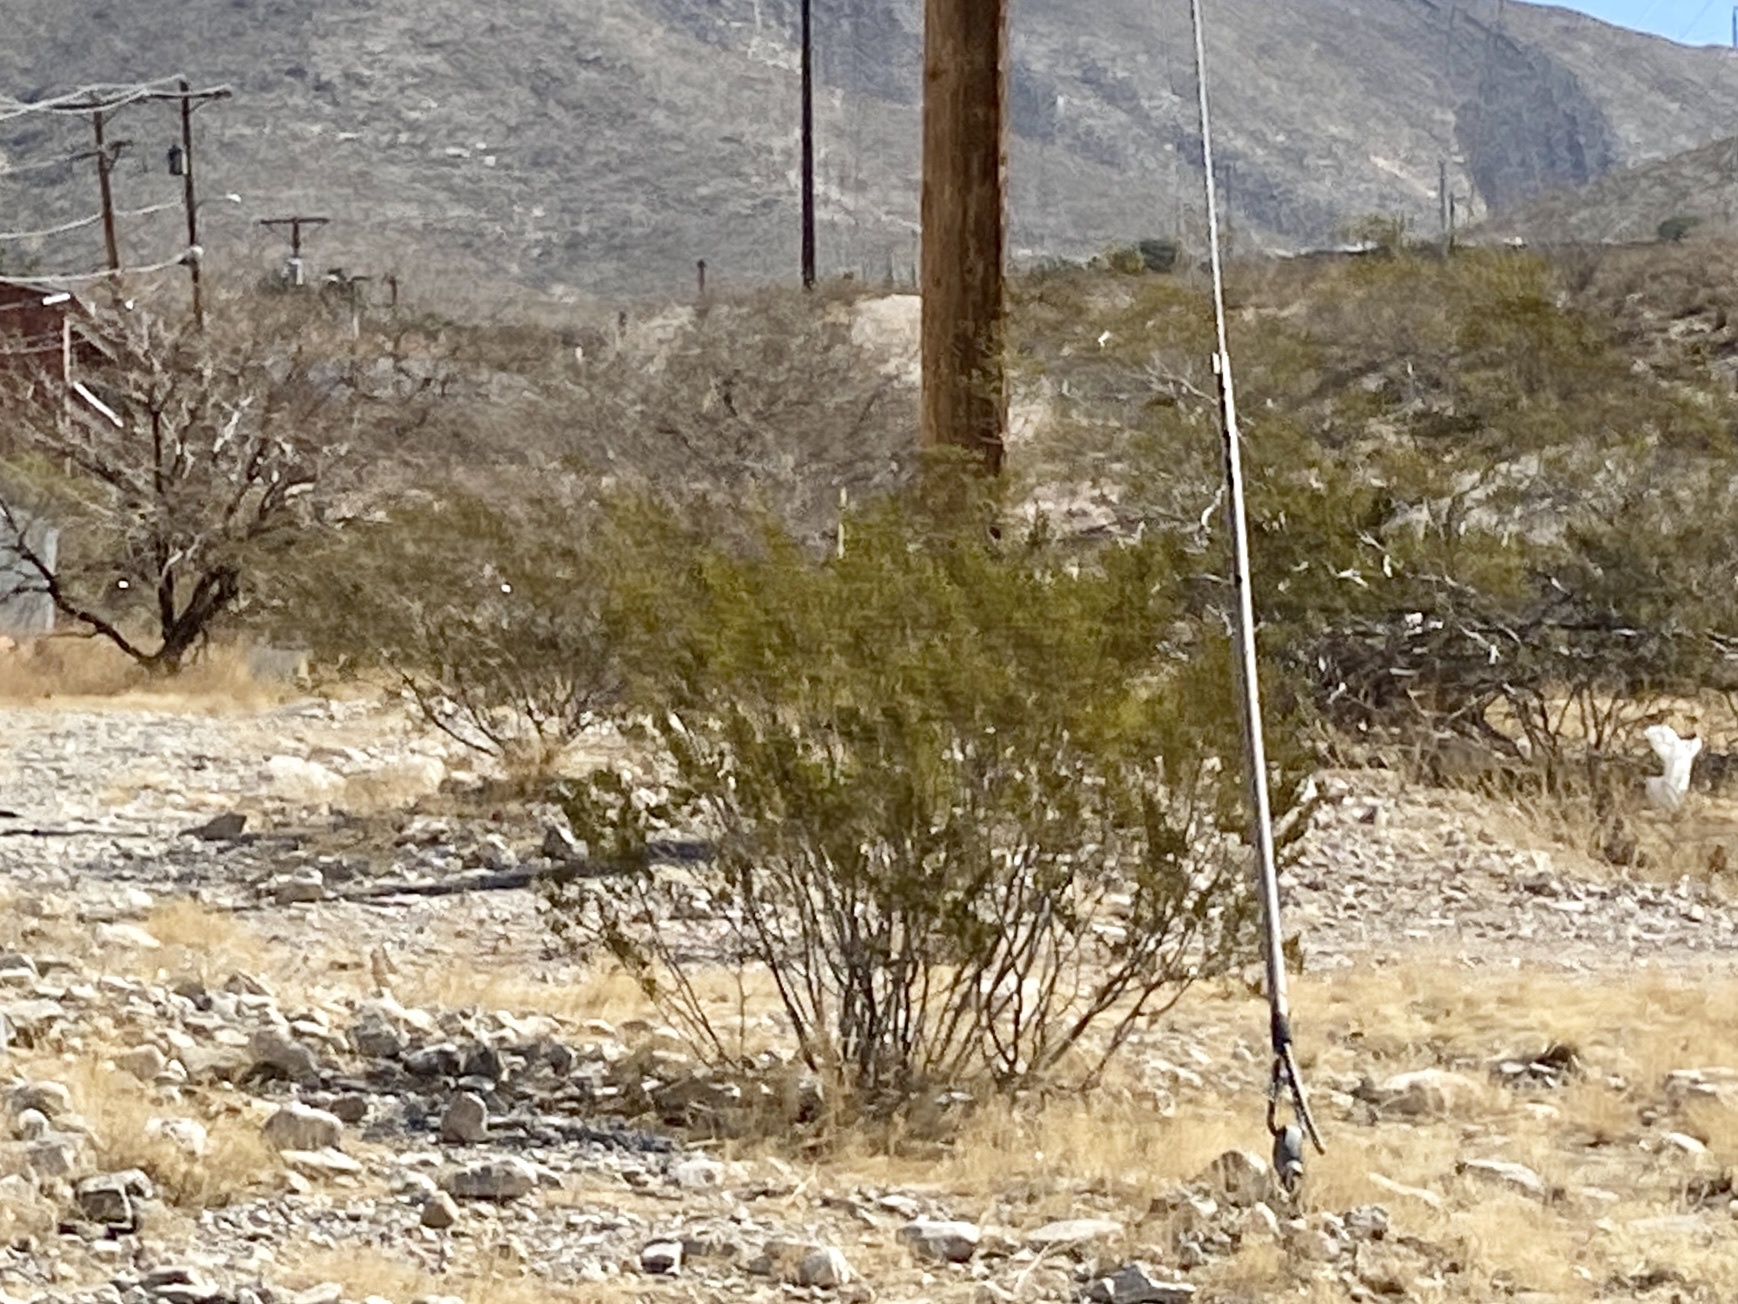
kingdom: Plantae
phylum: Tracheophyta
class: Magnoliopsida
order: Zygophyllales
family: Zygophyllaceae
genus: Larrea
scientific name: Larrea tridentata
